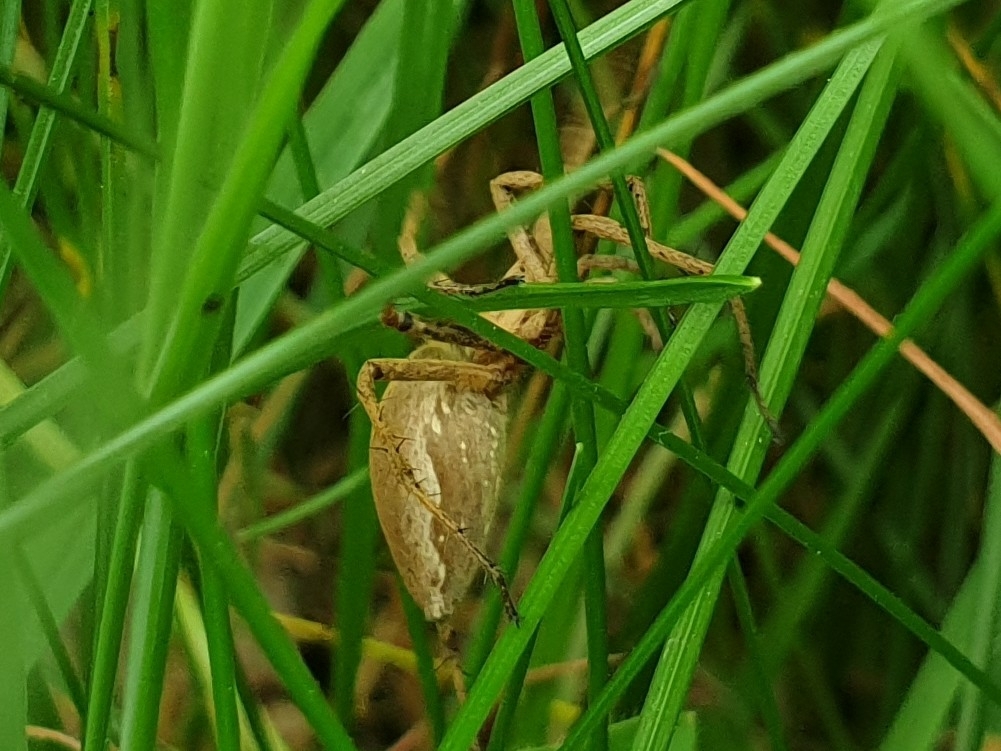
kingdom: Animalia
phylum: Arthropoda
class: Arachnida
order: Araneae
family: Pisauridae
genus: Pisaura
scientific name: Pisaura mirabilis
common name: Tent spider
